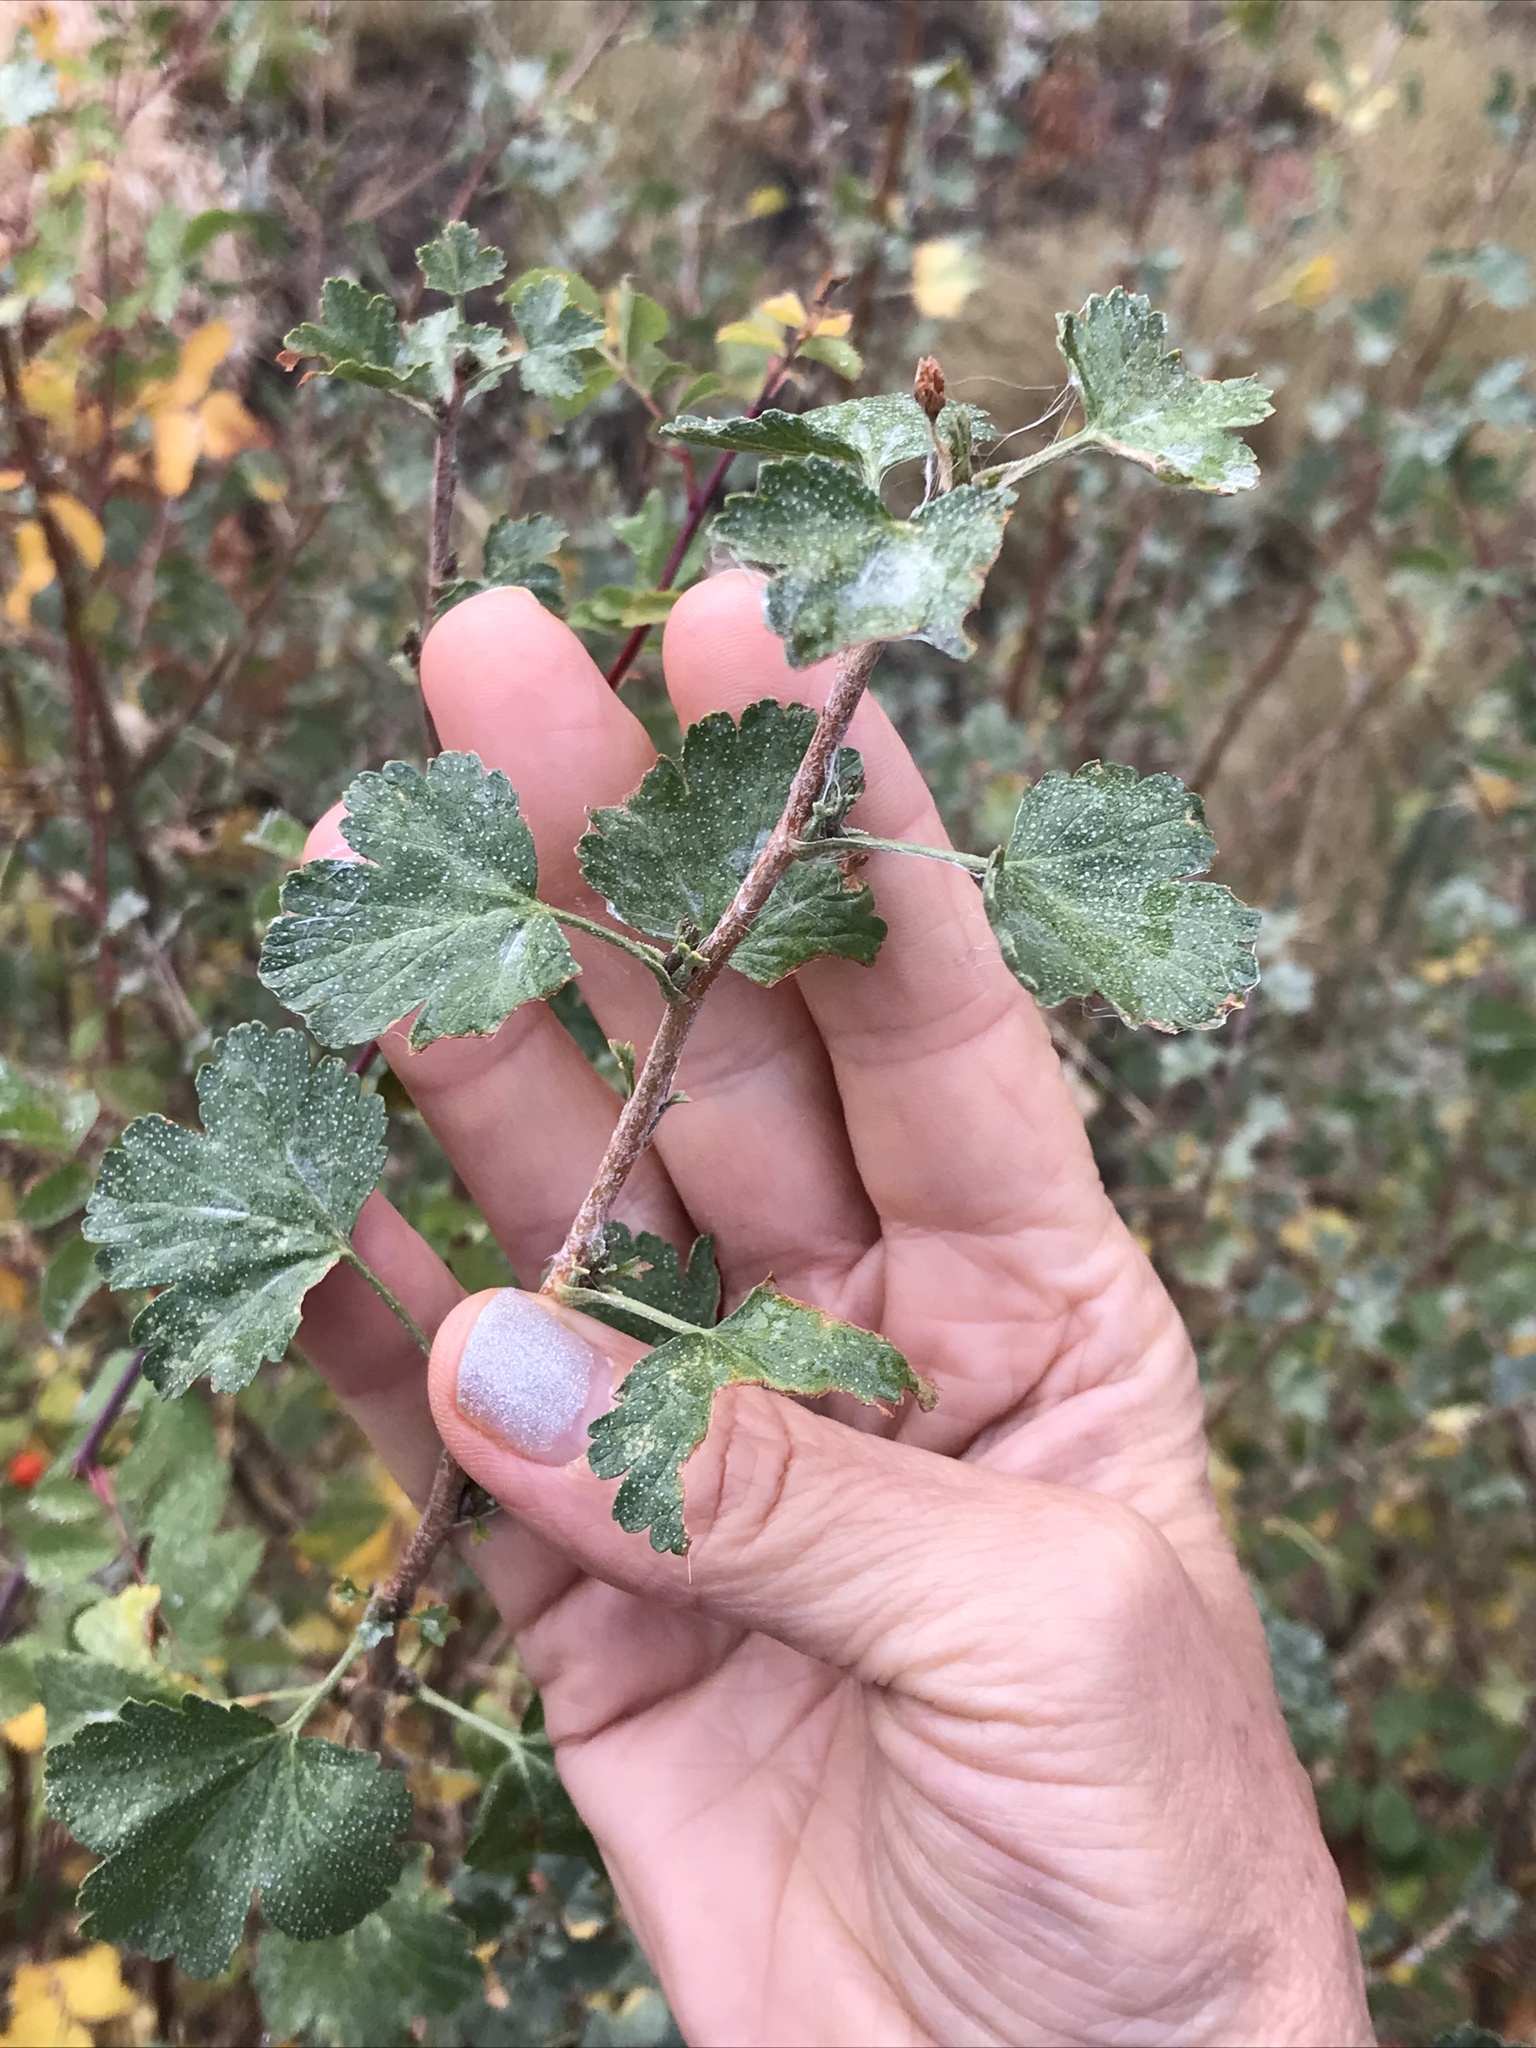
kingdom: Plantae
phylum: Tracheophyta
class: Magnoliopsida
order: Saxifragales
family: Grossulariaceae
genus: Ribes
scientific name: Ribes cereum
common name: Wax currant
